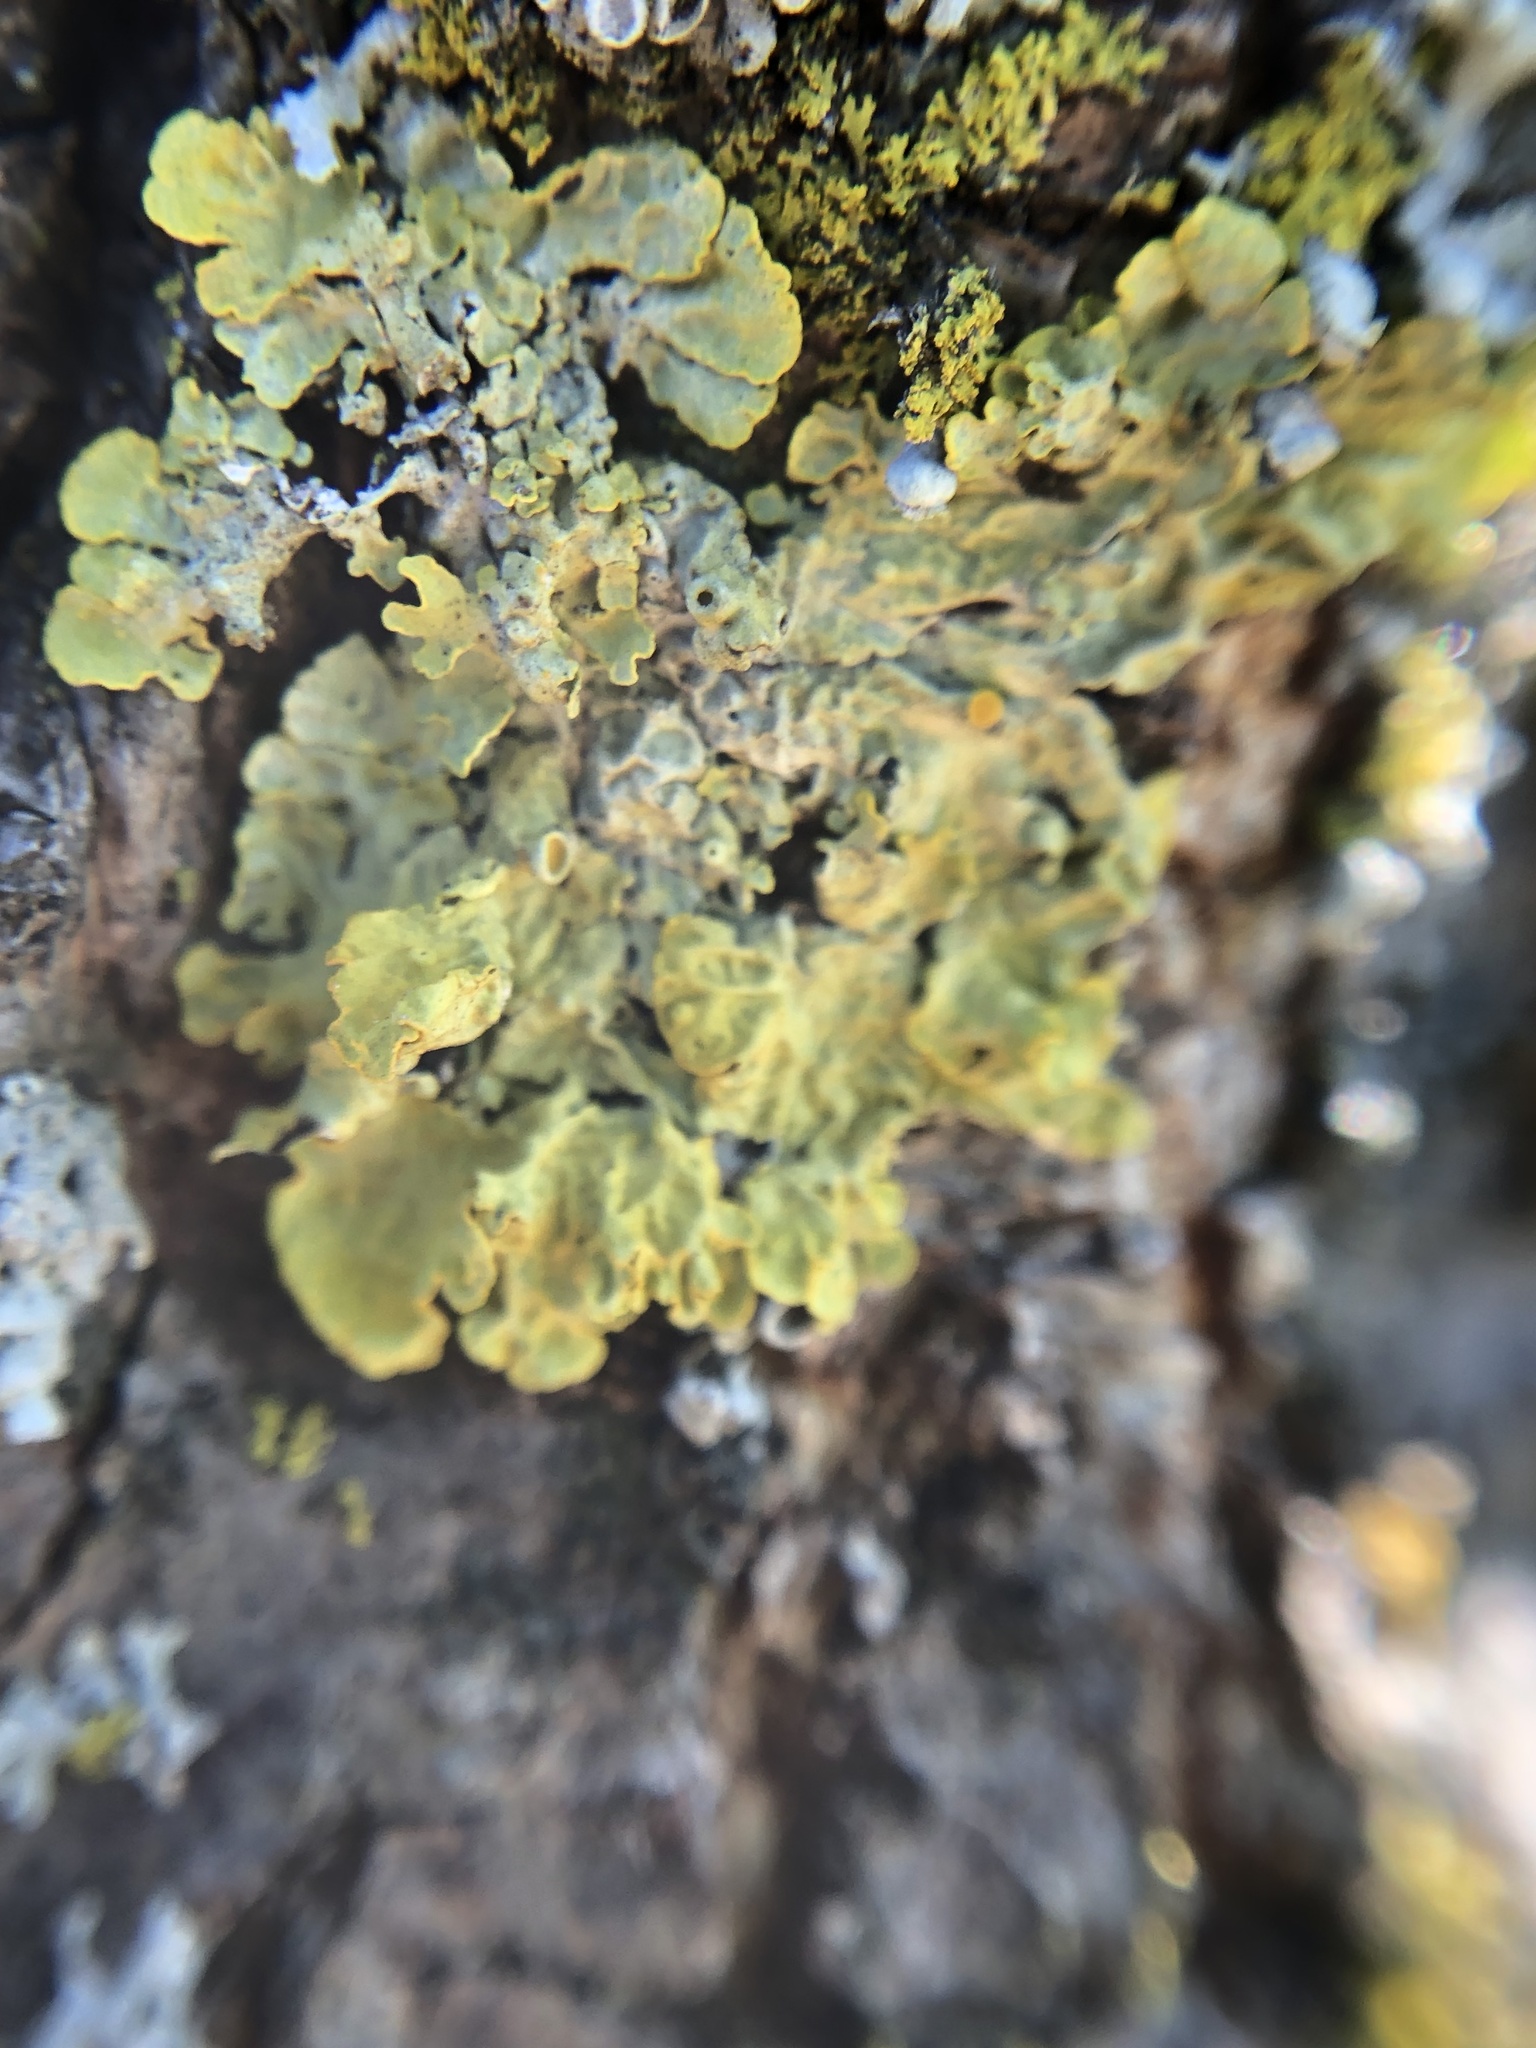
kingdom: Fungi
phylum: Ascomycota
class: Lecanoromycetes
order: Teloschistales
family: Teloschistaceae
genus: Xanthoria
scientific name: Xanthoria parietina
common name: Common orange lichen
